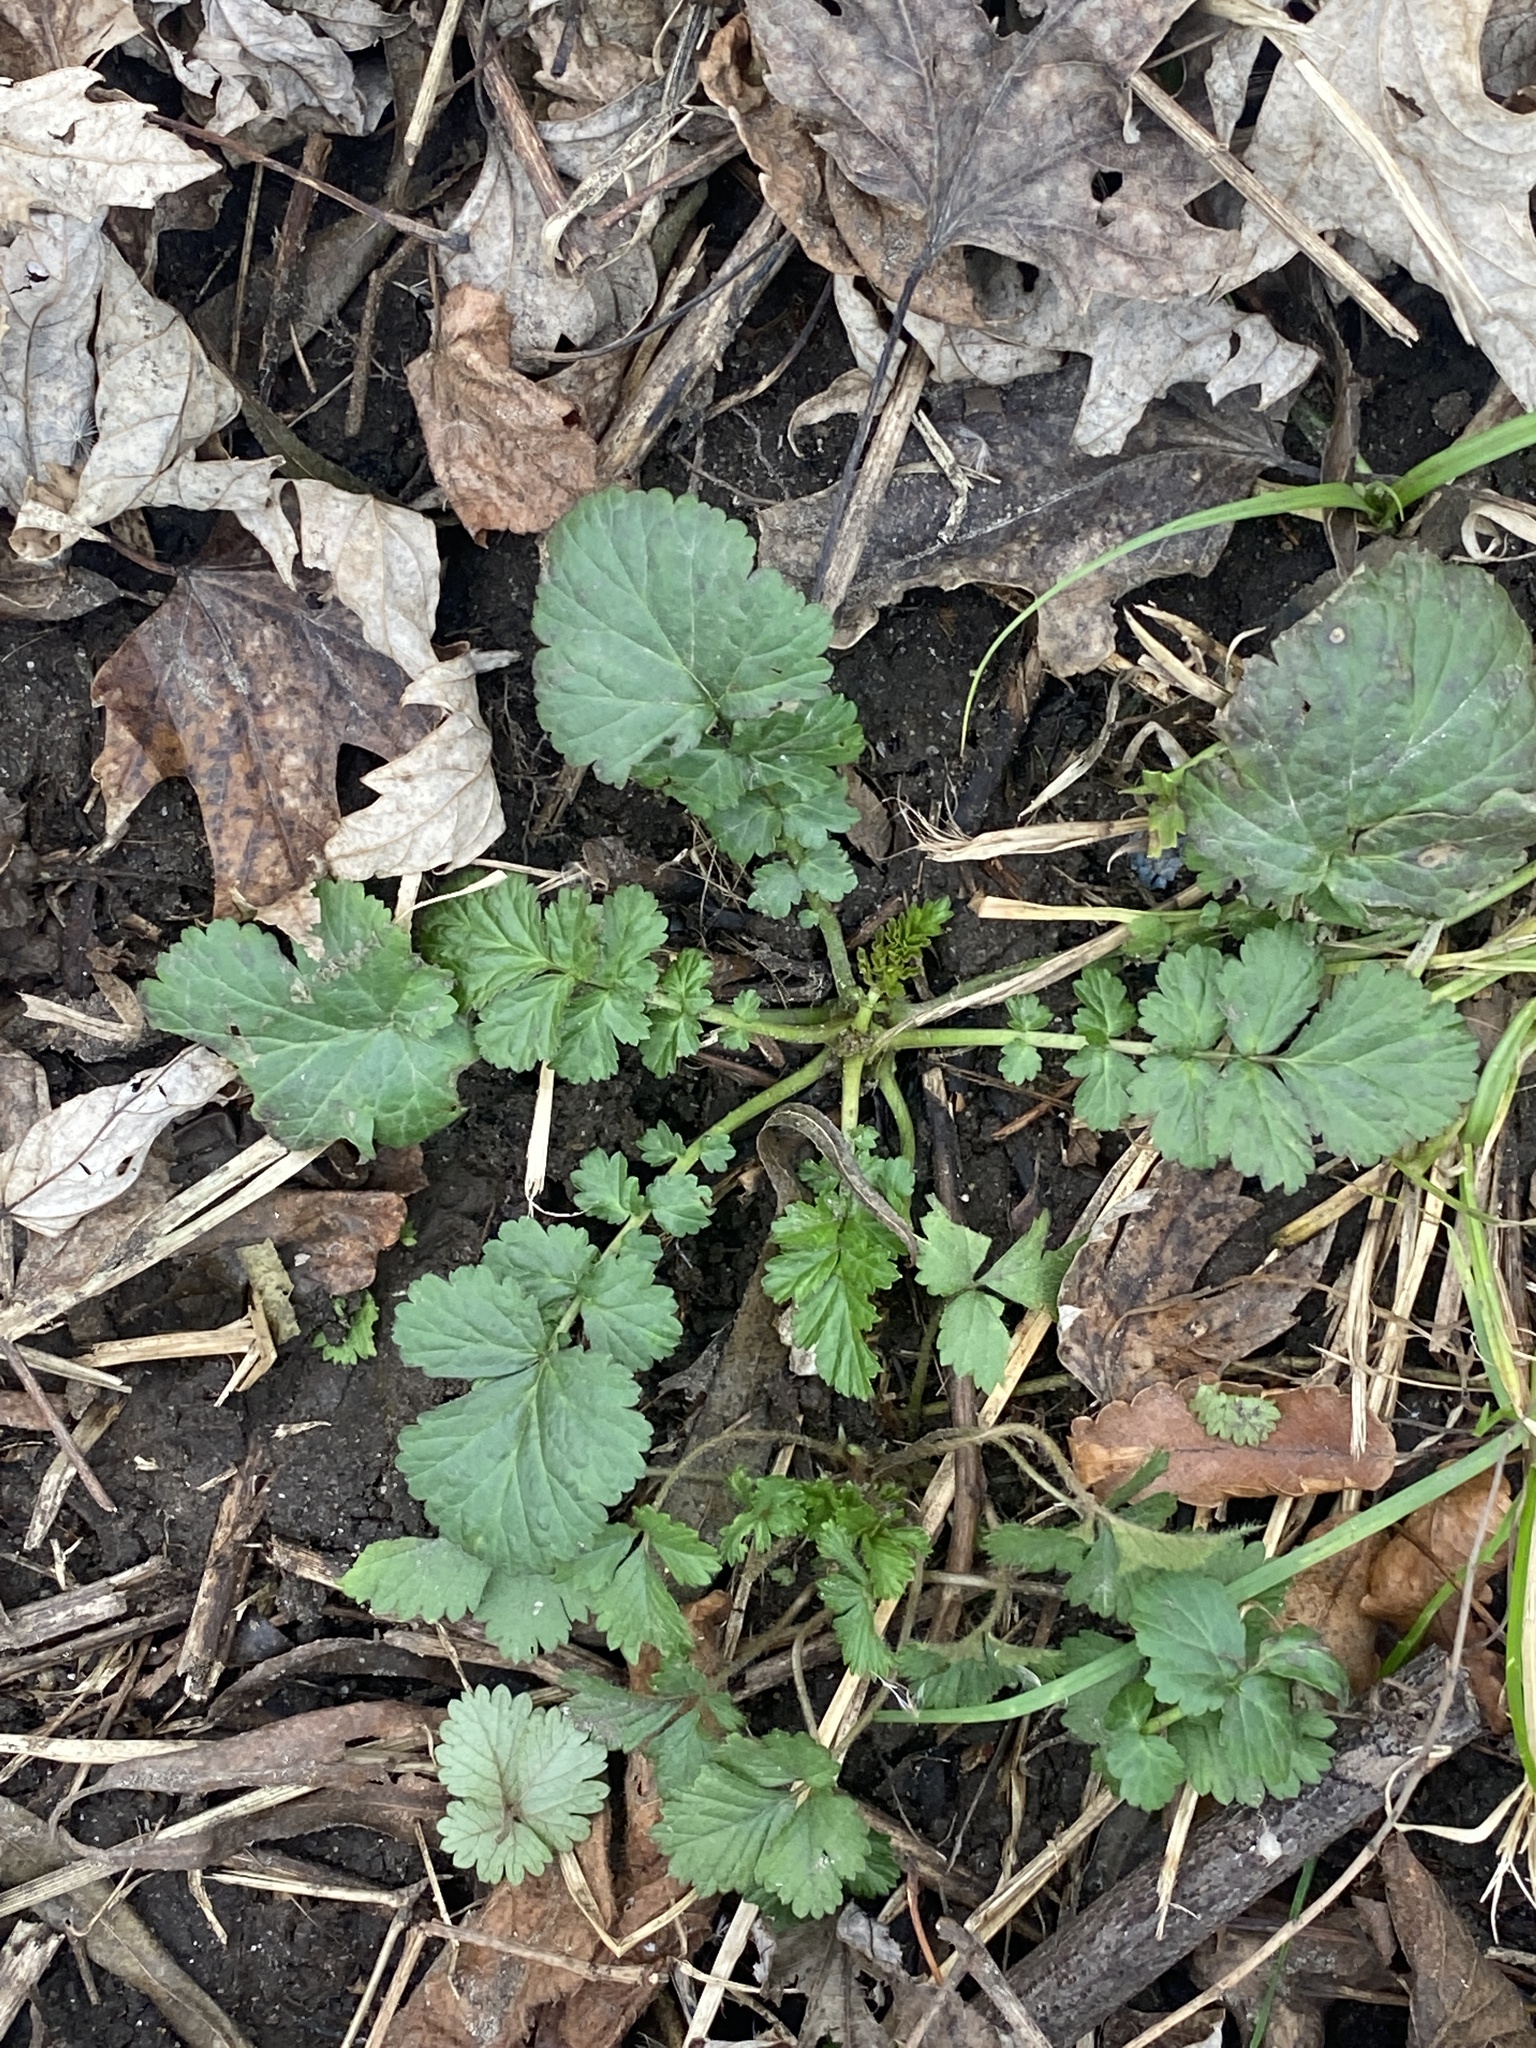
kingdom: Plantae
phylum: Tracheophyta
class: Magnoliopsida
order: Rosales
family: Rosaceae
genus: Geum
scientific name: Geum canadense
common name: White avens
